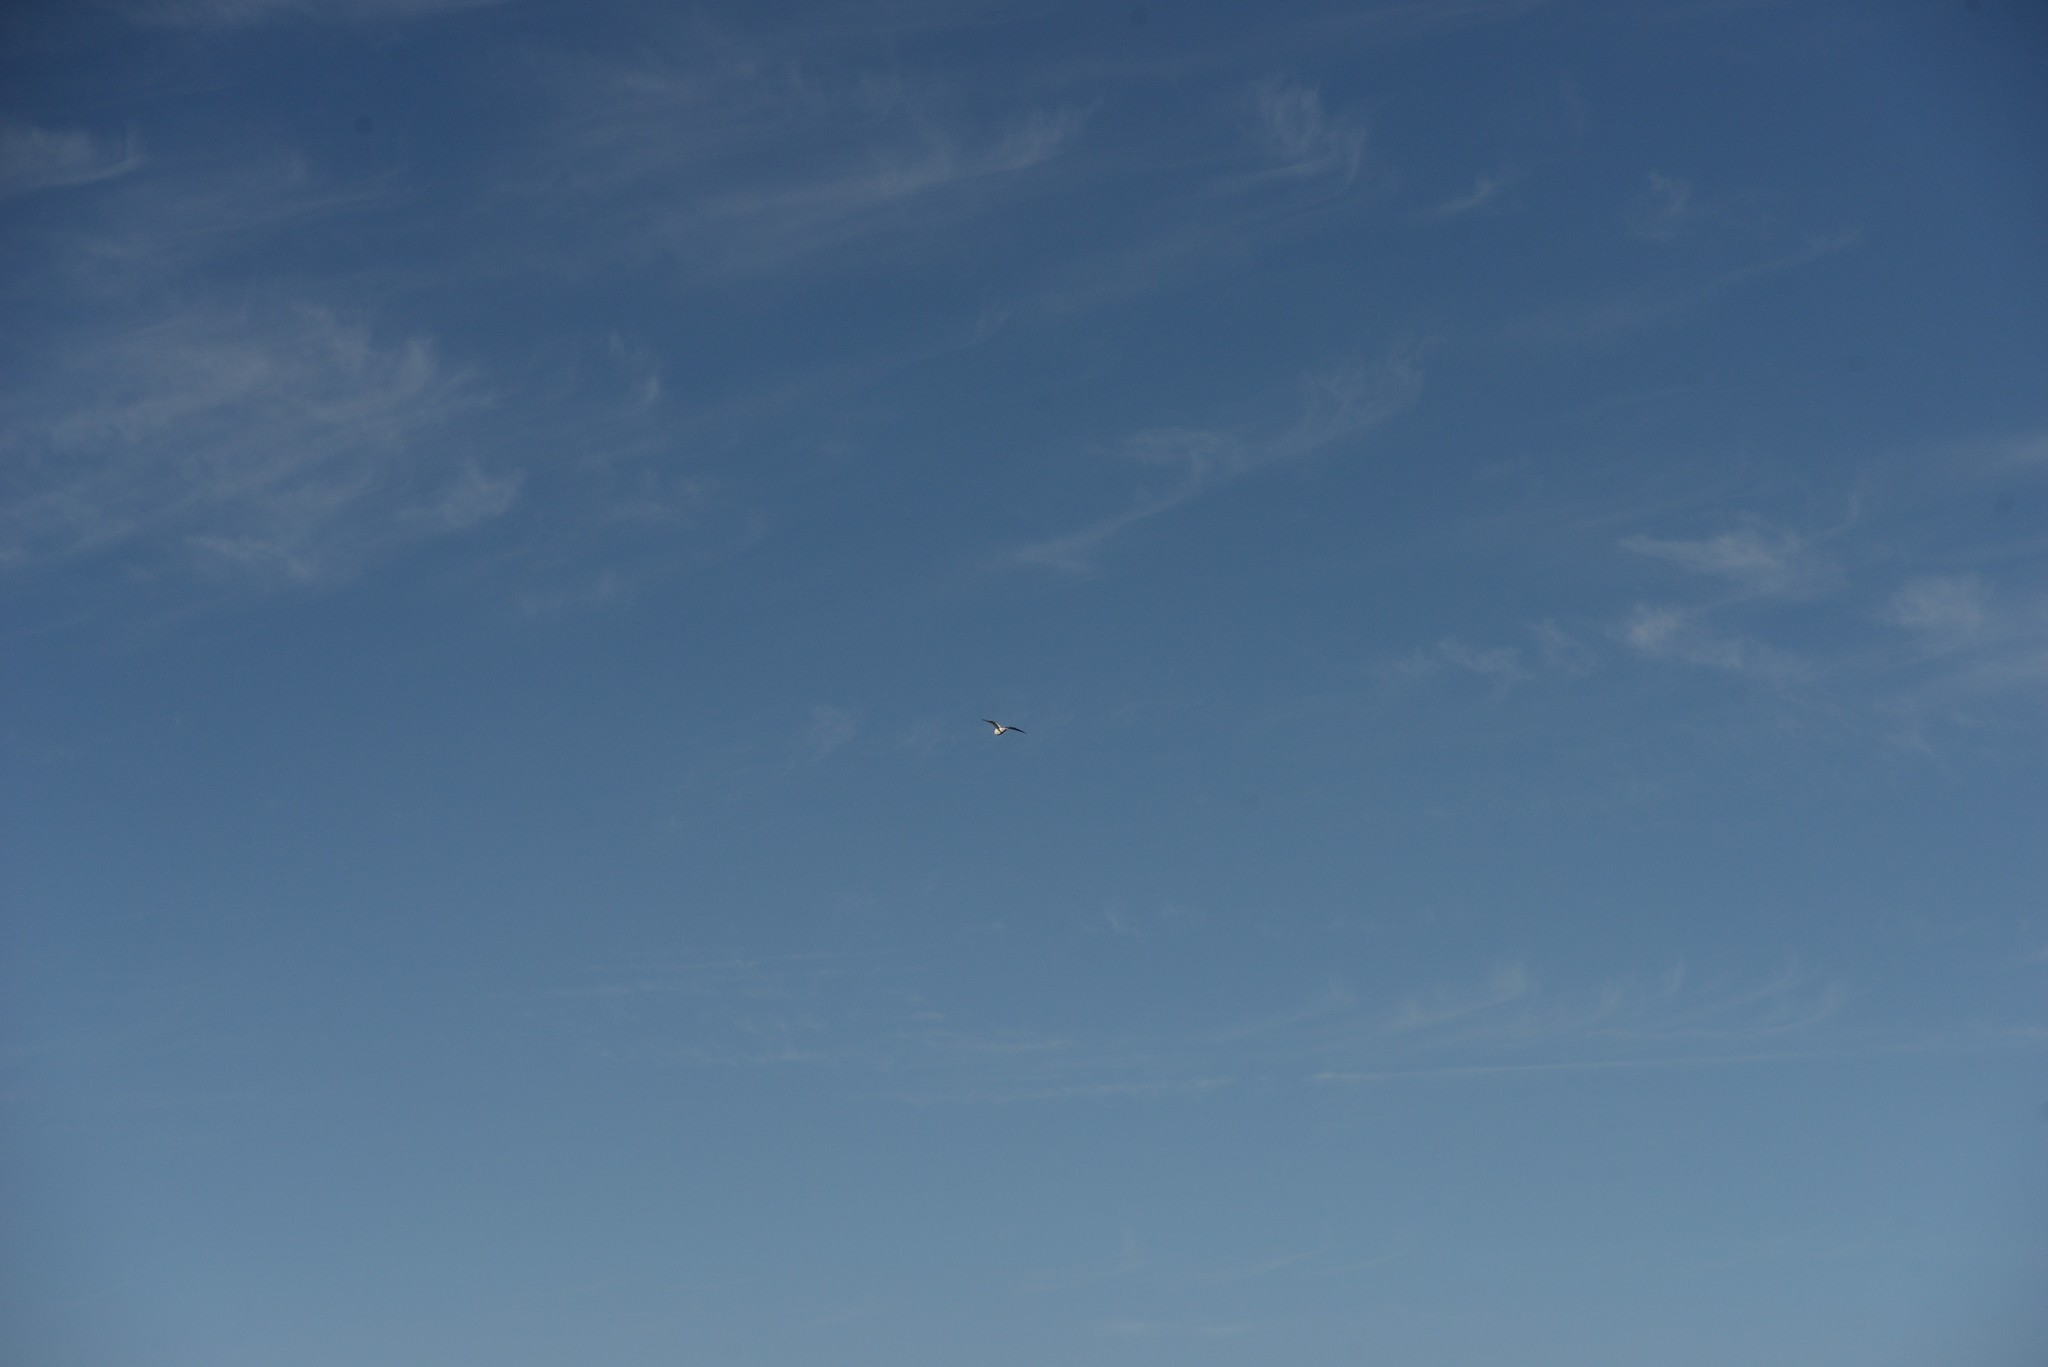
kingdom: Animalia
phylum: Chordata
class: Aves
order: Charadriiformes
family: Laridae
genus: Larus
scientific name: Larus dominicanus
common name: Kelp gull
